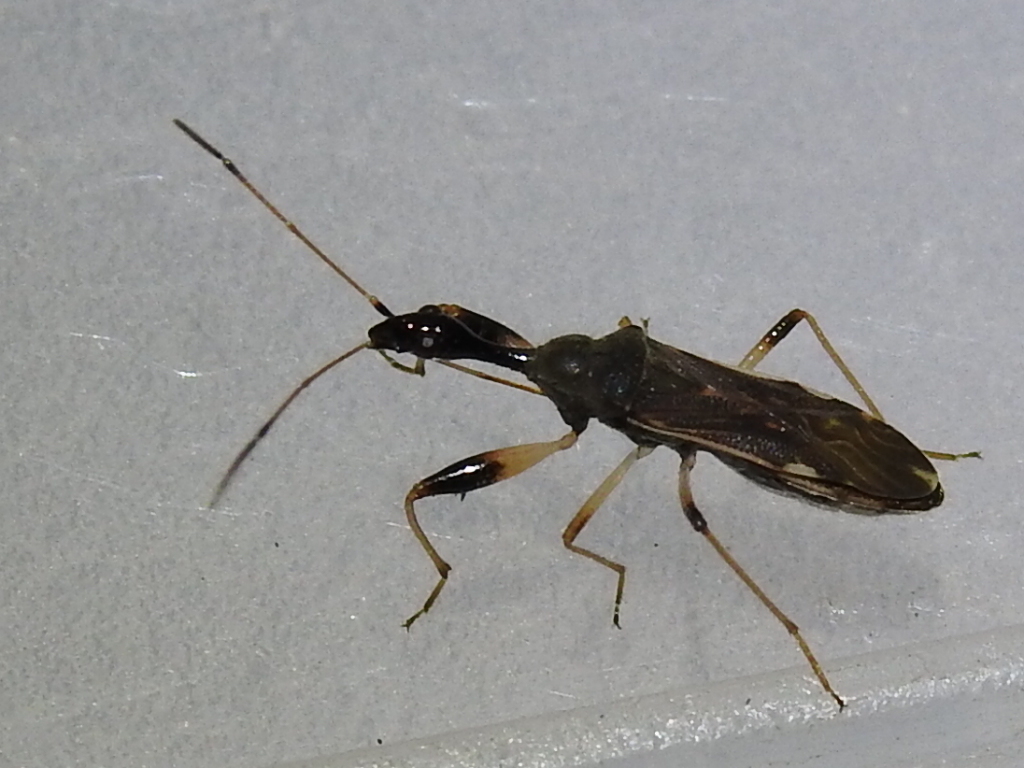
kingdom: Animalia
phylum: Arthropoda
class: Insecta
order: Hemiptera
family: Rhyparochromidae
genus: Myodocha
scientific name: Myodocha serripes
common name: Long-necked seed bug
